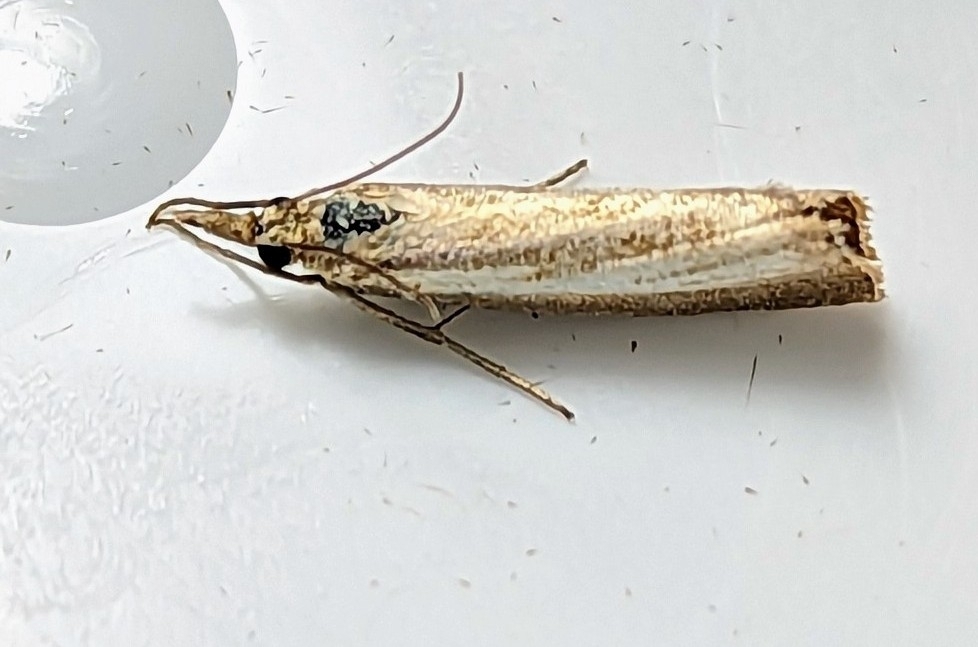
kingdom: Animalia
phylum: Arthropoda
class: Insecta
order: Lepidoptera
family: Crambidae
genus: Agriphila
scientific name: Agriphila straminella
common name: Straw grass-veneer
